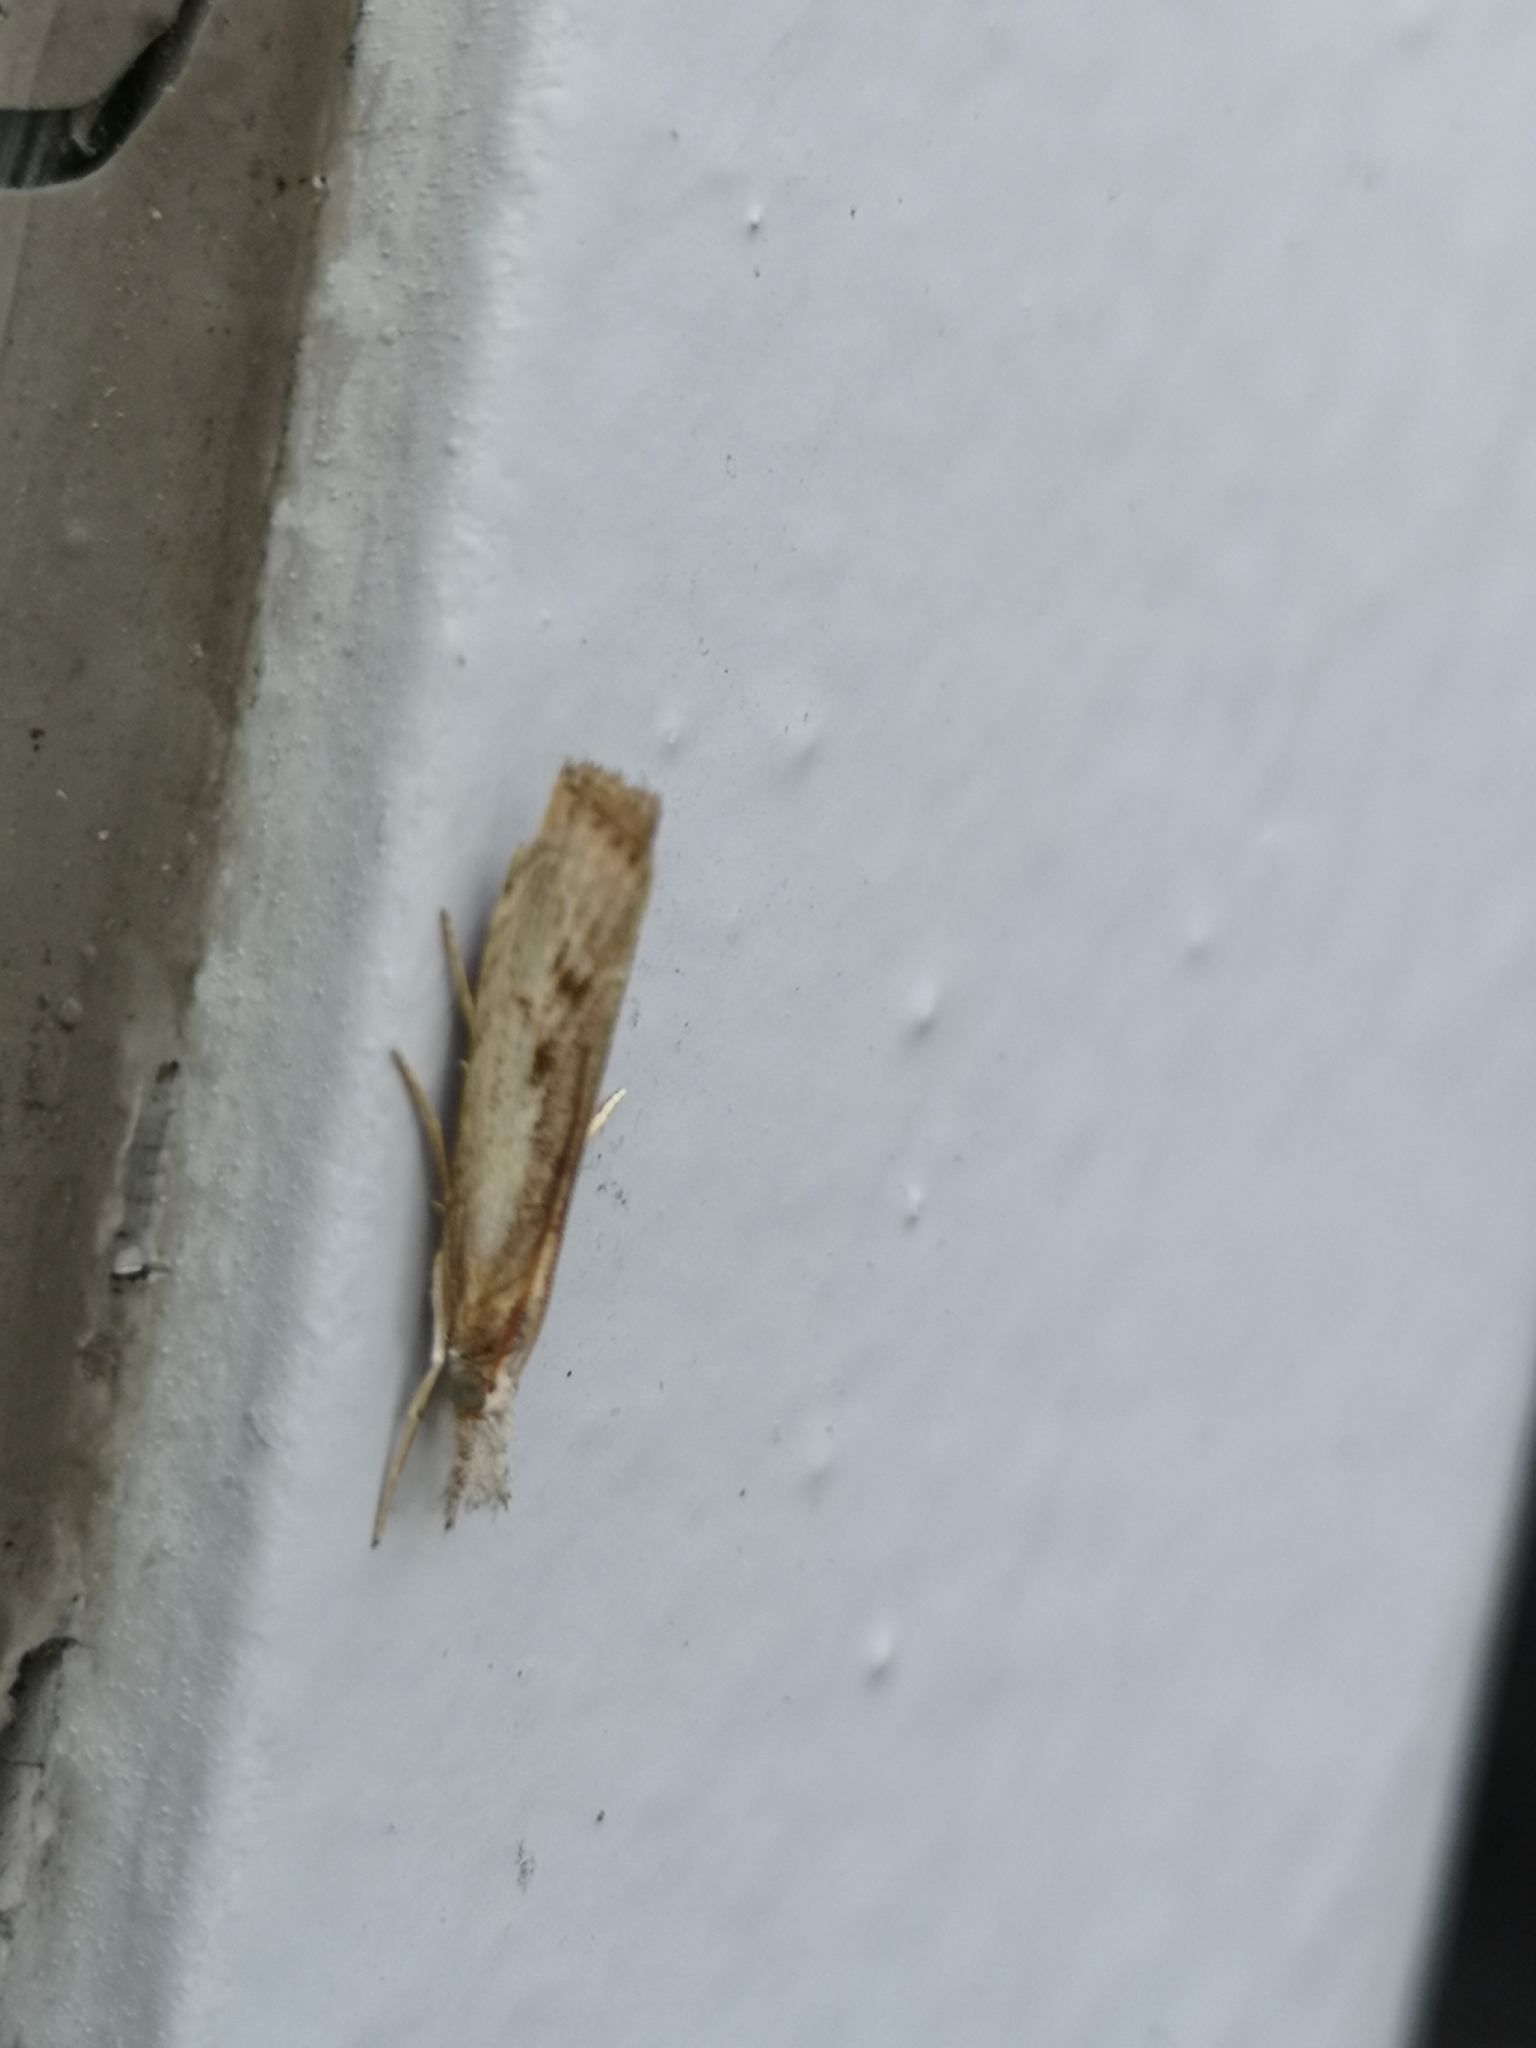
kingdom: Animalia
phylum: Arthropoda
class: Insecta
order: Lepidoptera
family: Crambidae
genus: Agriphila
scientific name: Agriphila geniculea
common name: Elbow-stripe grass-veneer
